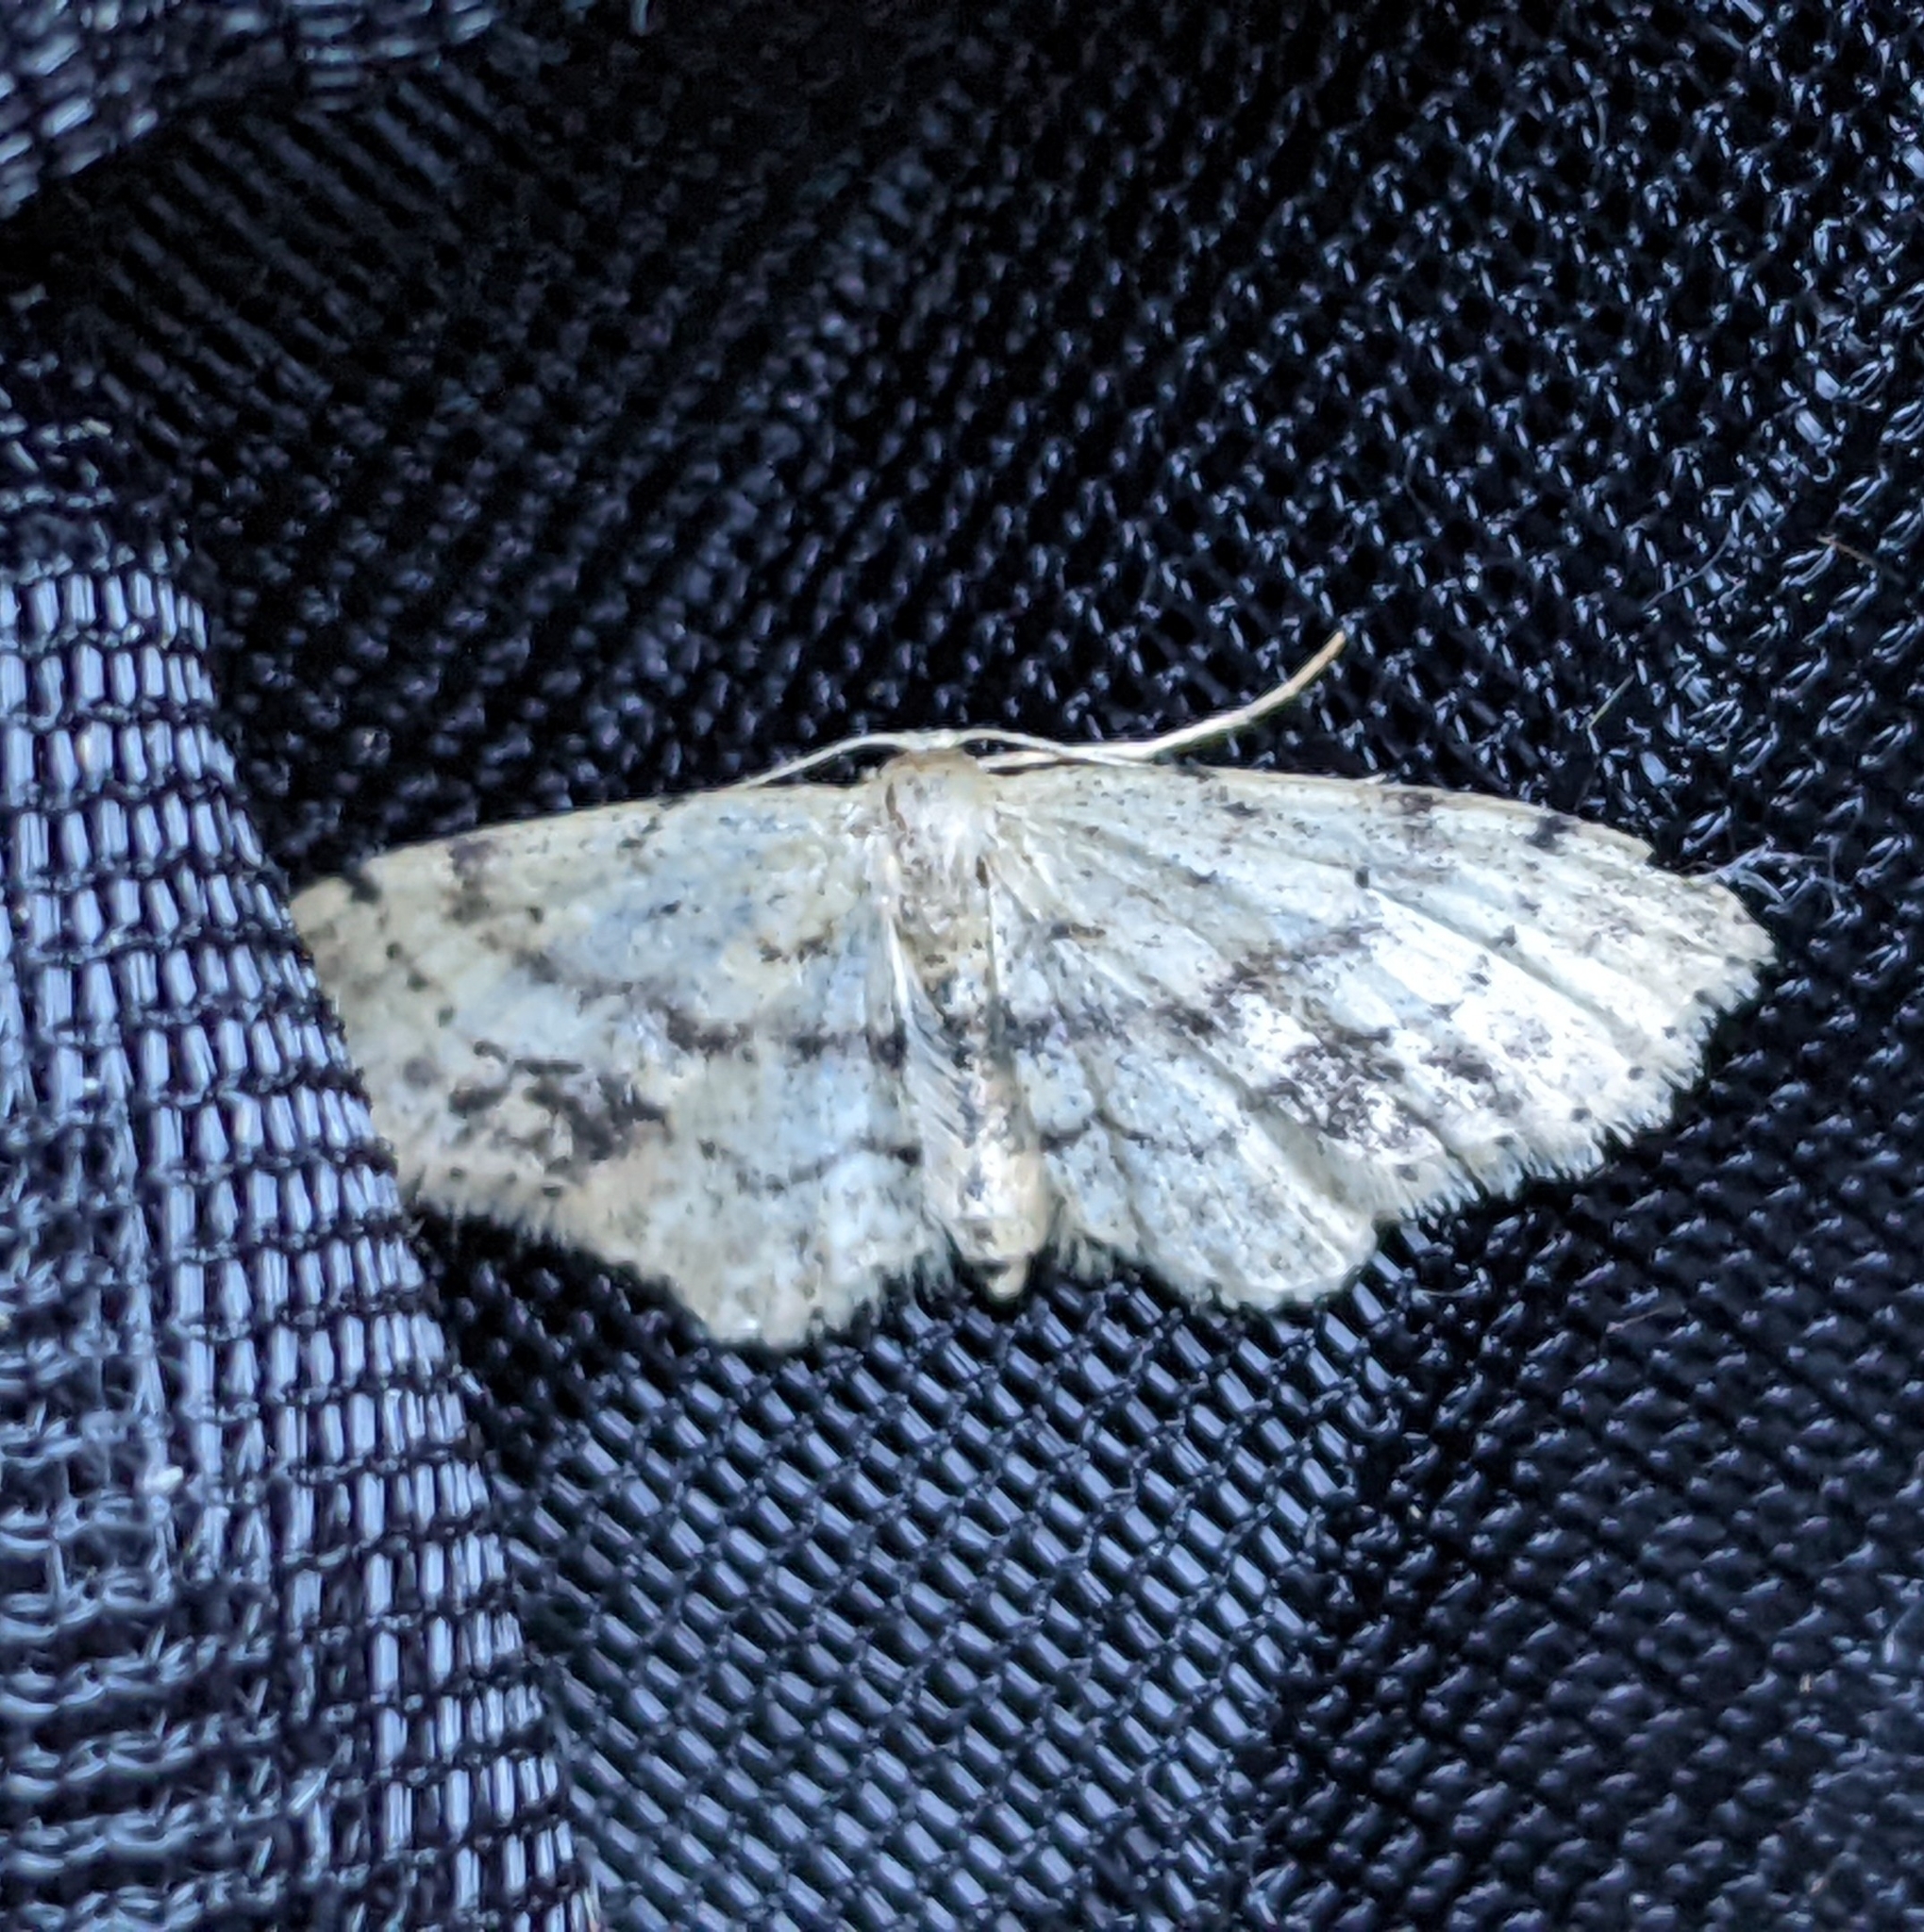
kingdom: Animalia
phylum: Arthropoda
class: Insecta
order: Lepidoptera
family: Geometridae
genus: Idaea
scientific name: Idaea dimidiata
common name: Single-dotted wave
